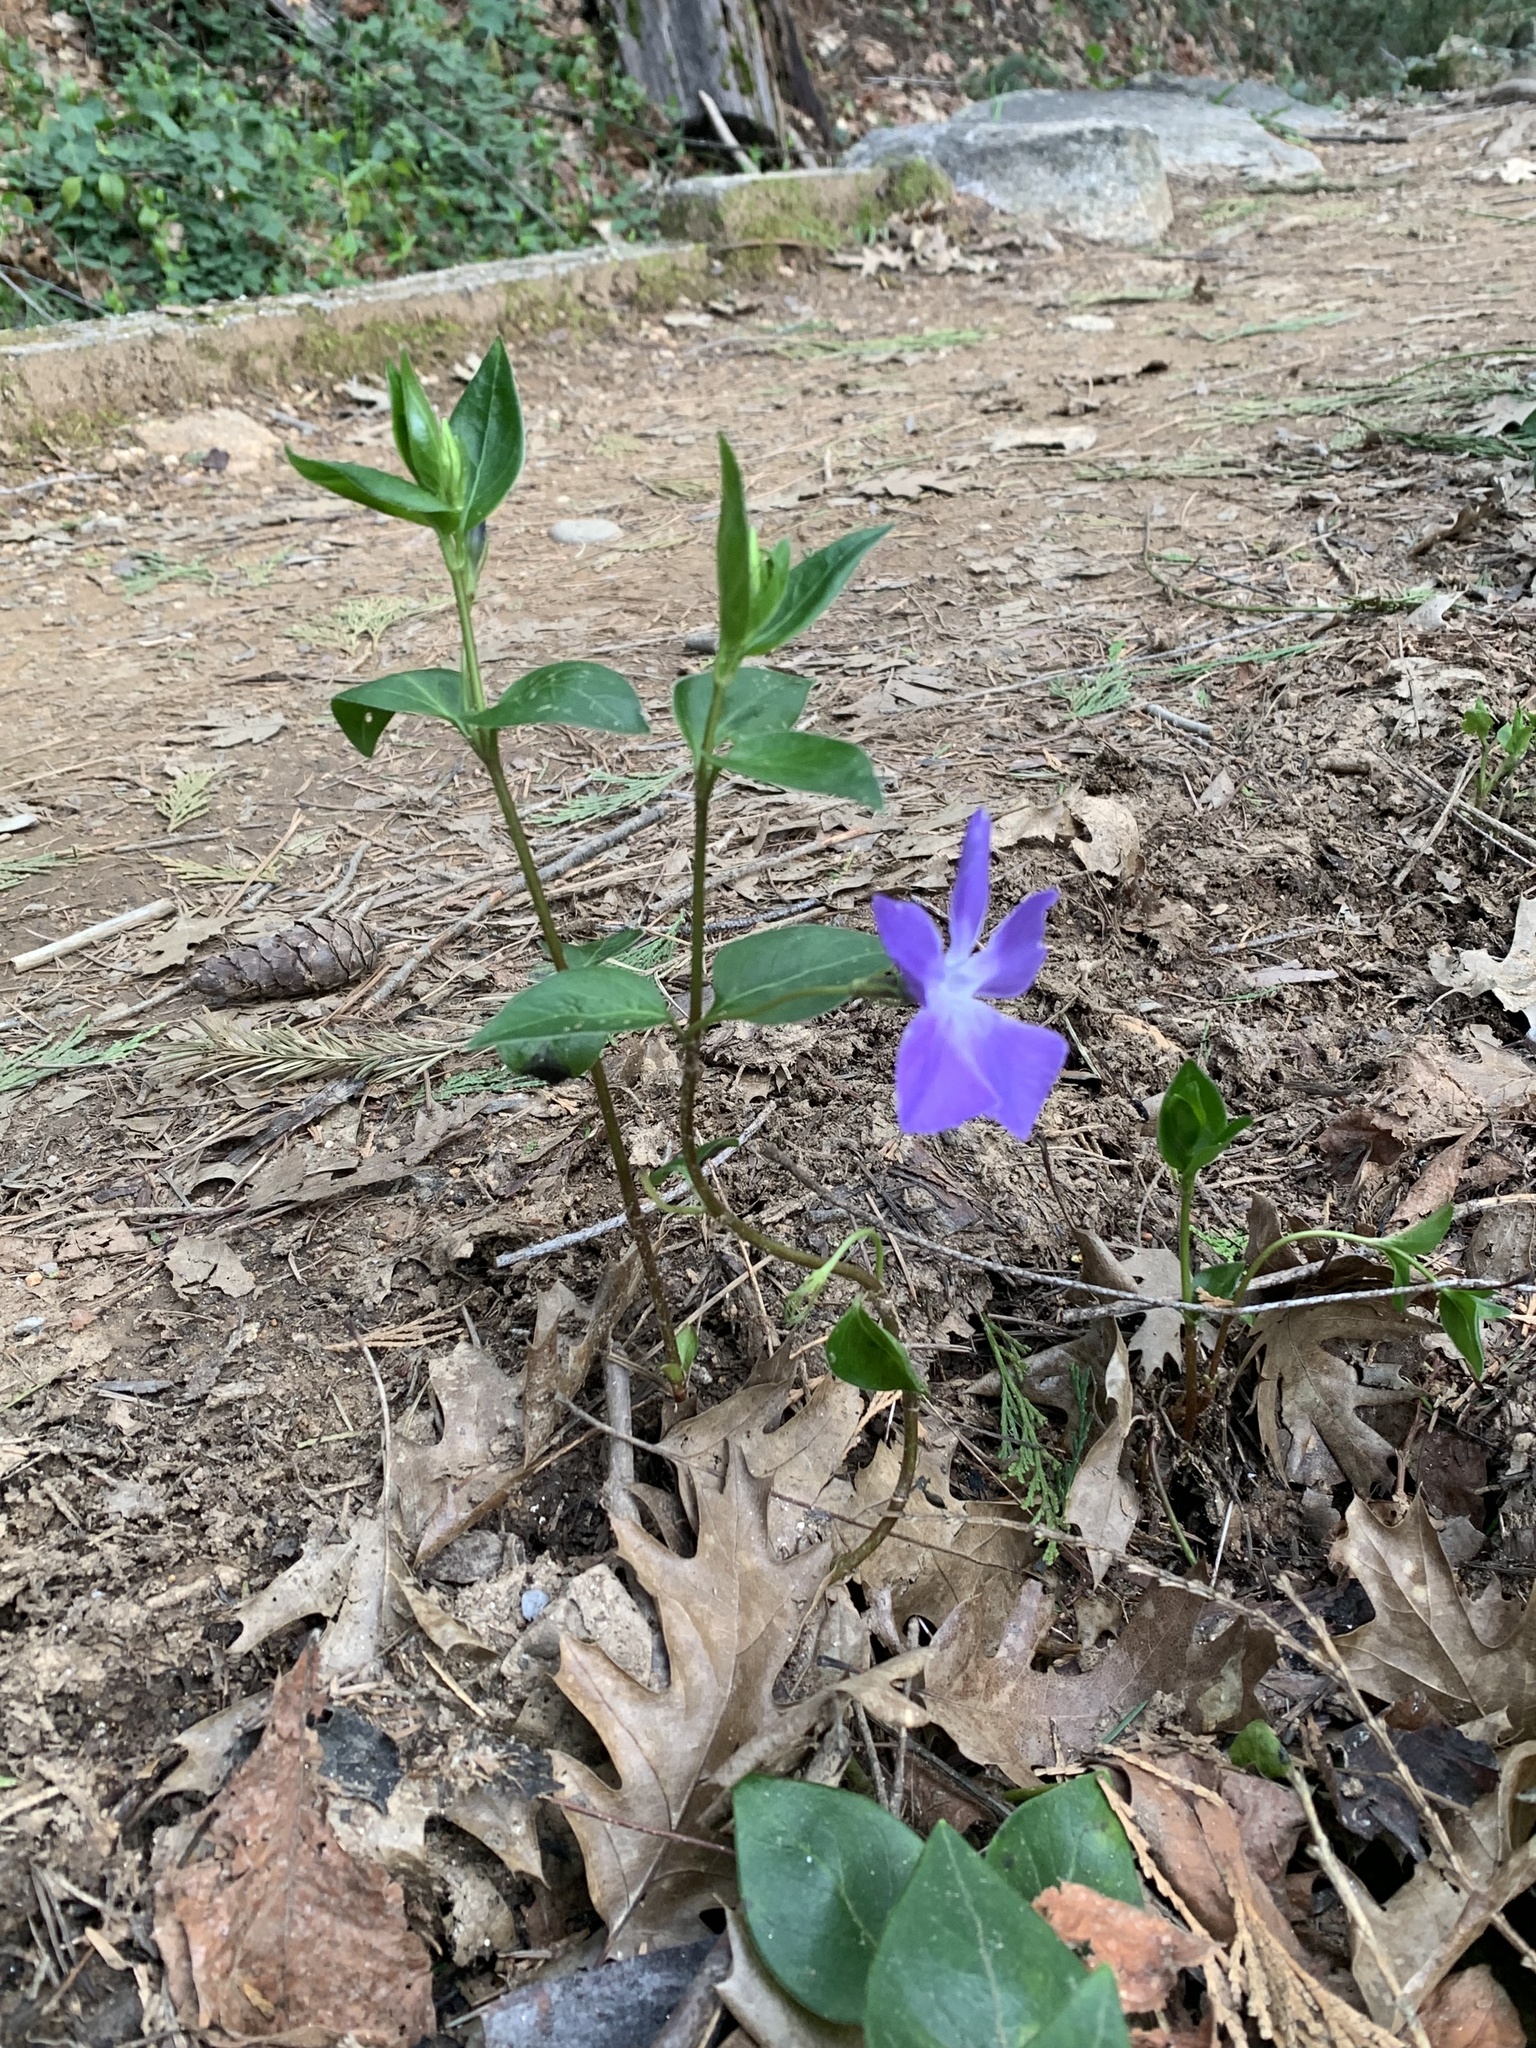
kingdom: Plantae
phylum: Tracheophyta
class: Magnoliopsida
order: Gentianales
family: Apocynaceae
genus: Vinca
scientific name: Vinca major
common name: Greater periwinkle
